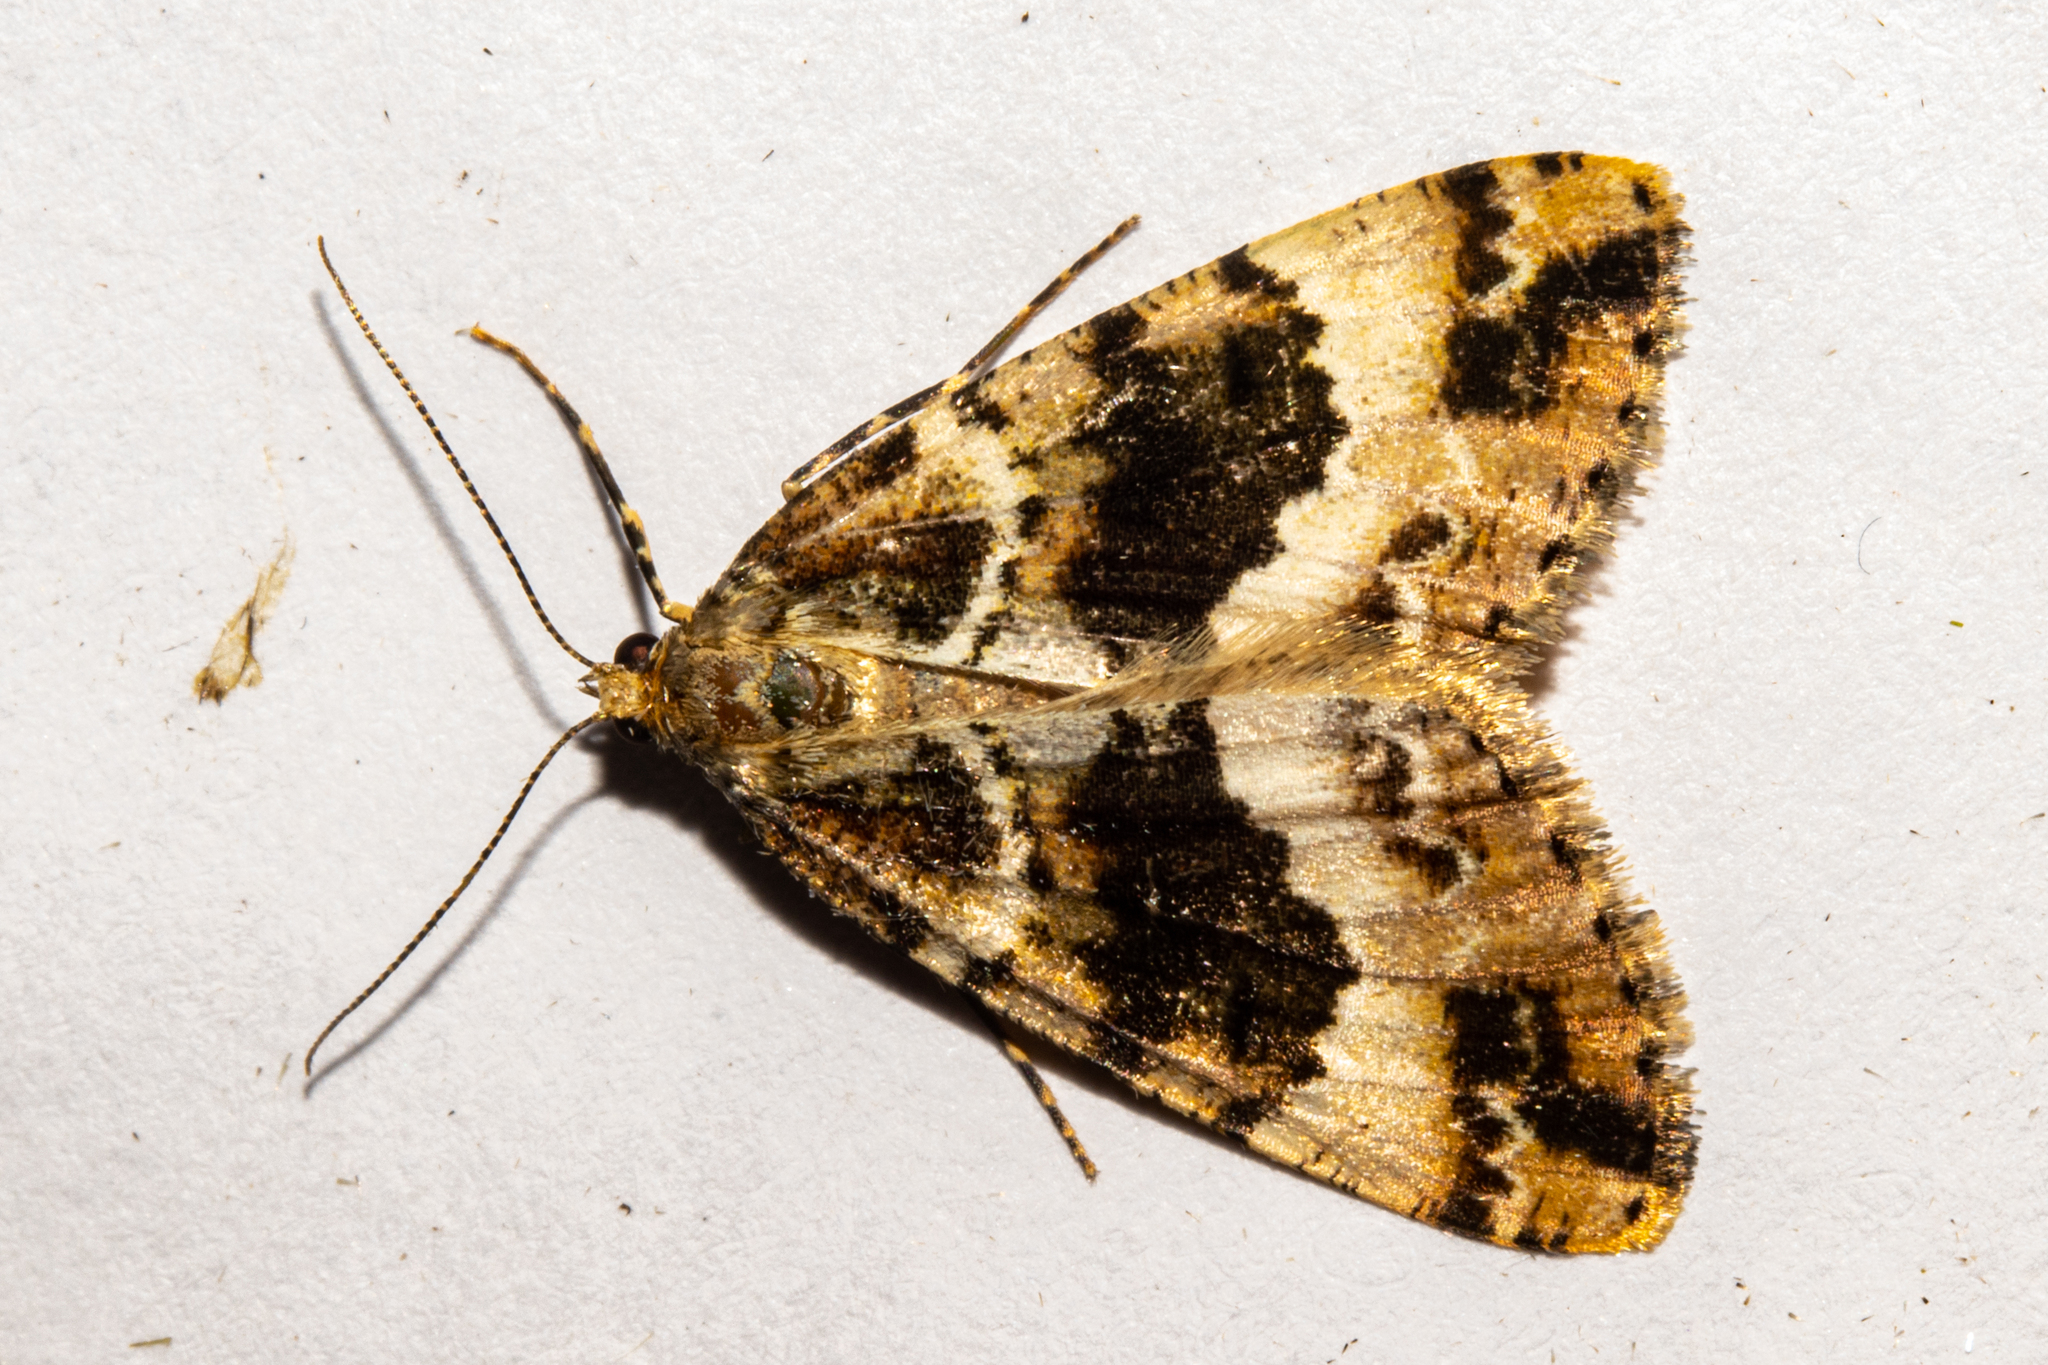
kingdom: Animalia
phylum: Arthropoda
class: Insecta
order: Lepidoptera
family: Geometridae
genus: Pseudocoremia
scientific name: Pseudocoremia productata
